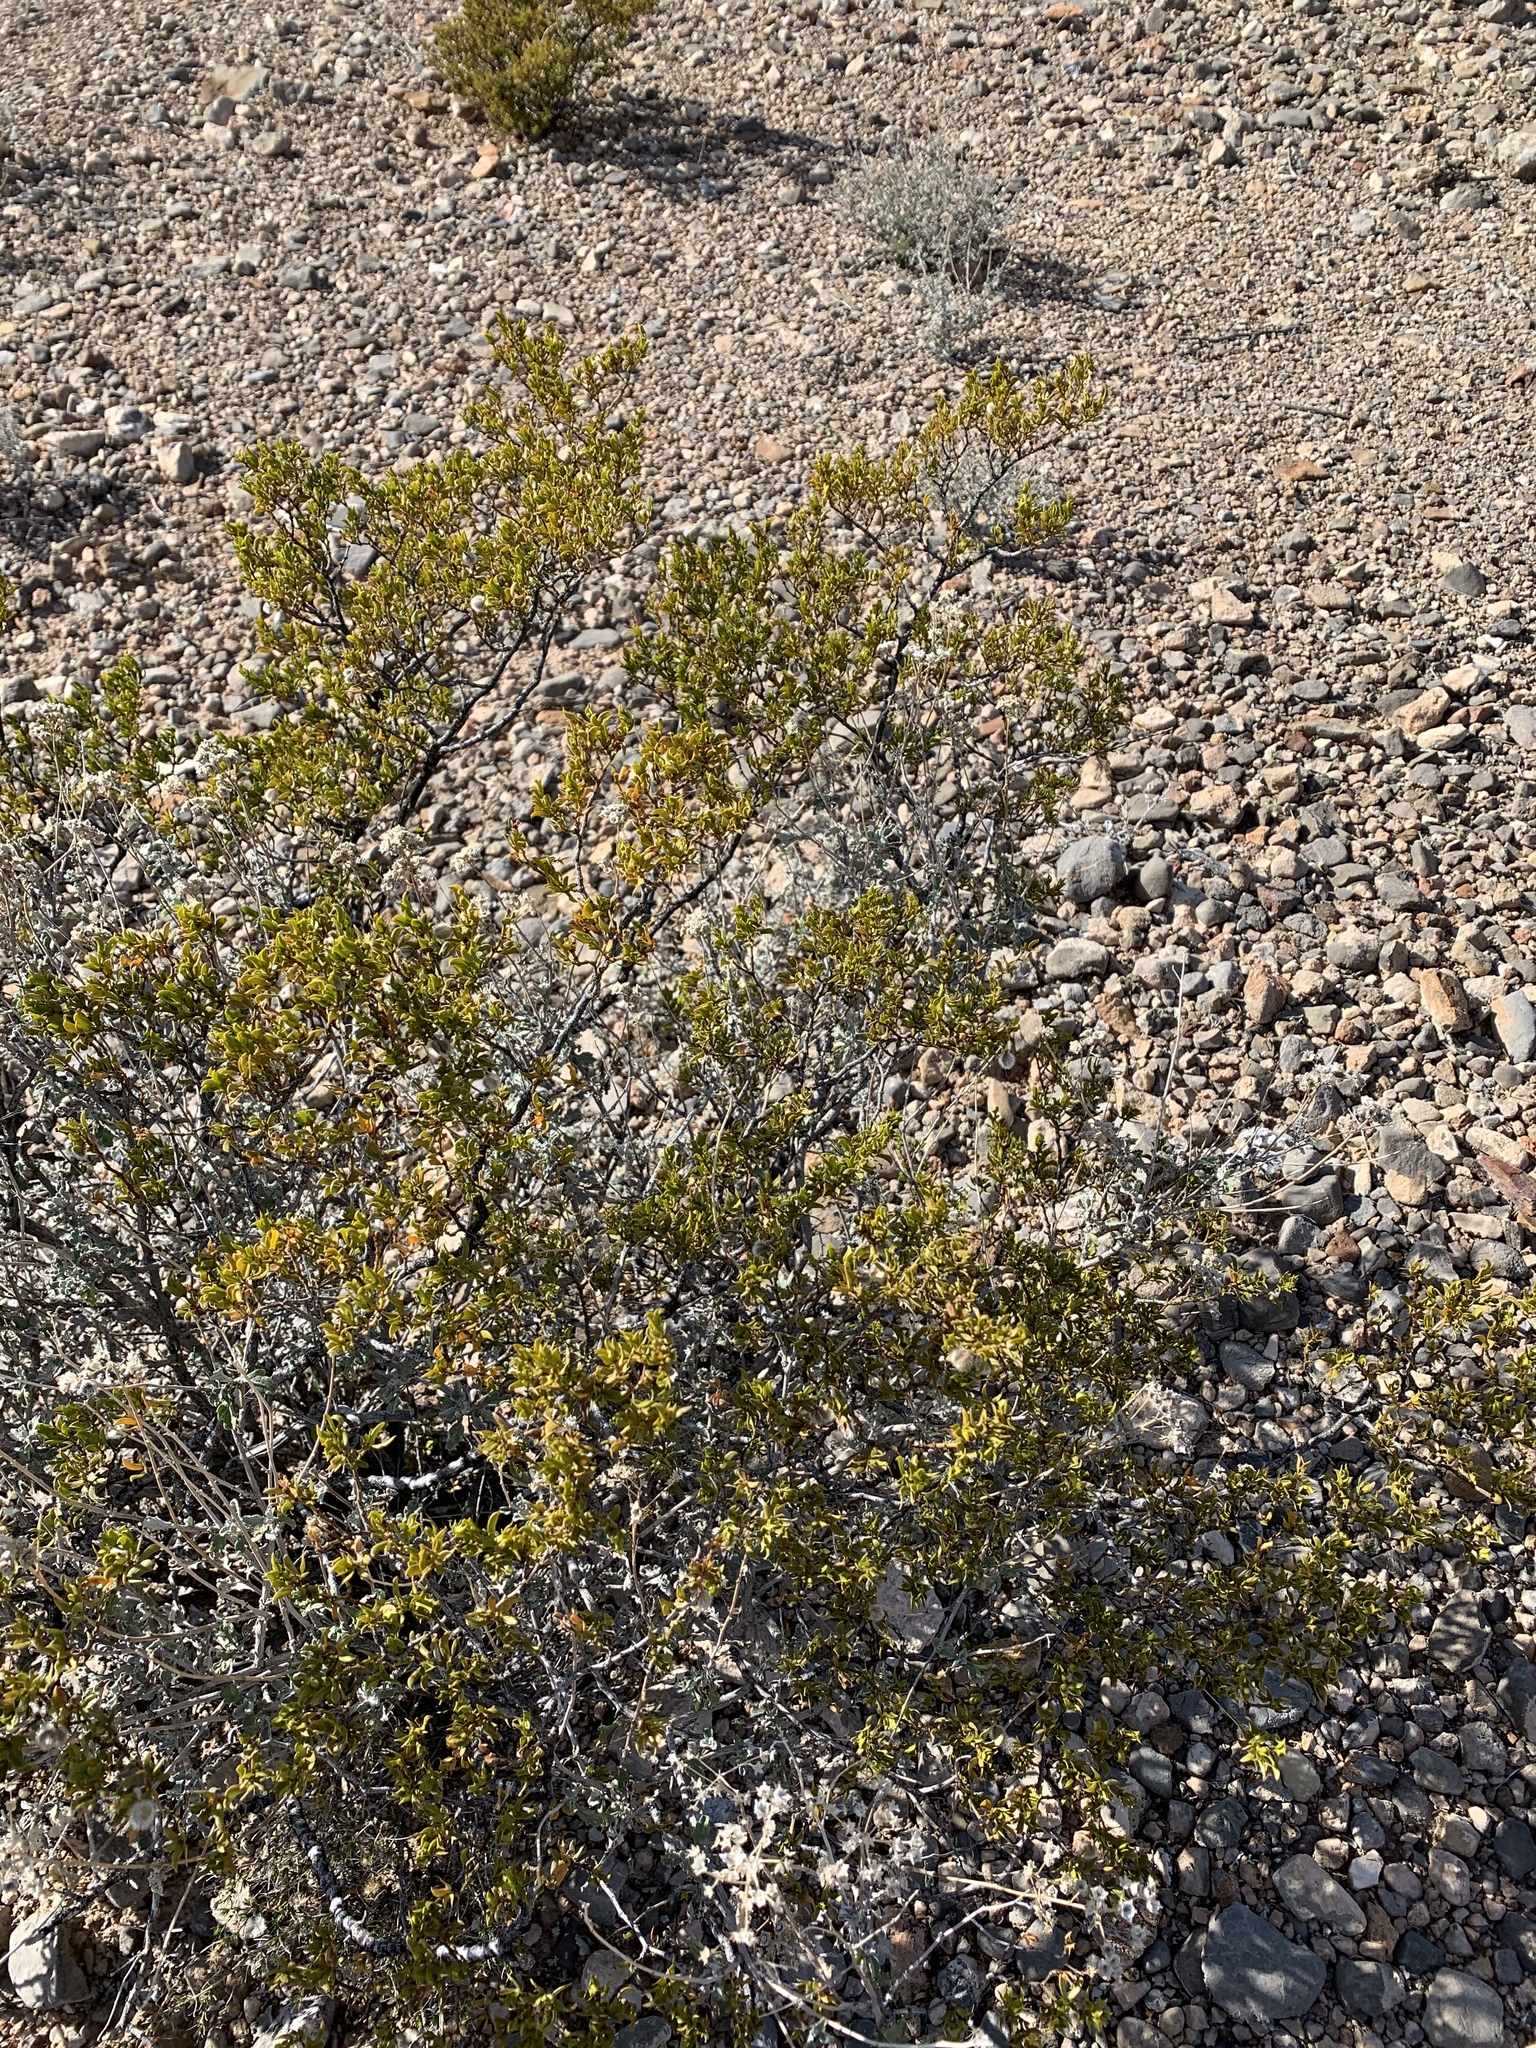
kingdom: Plantae
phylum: Tracheophyta
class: Magnoliopsida
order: Zygophyllales
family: Zygophyllaceae
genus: Larrea
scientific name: Larrea tridentata
